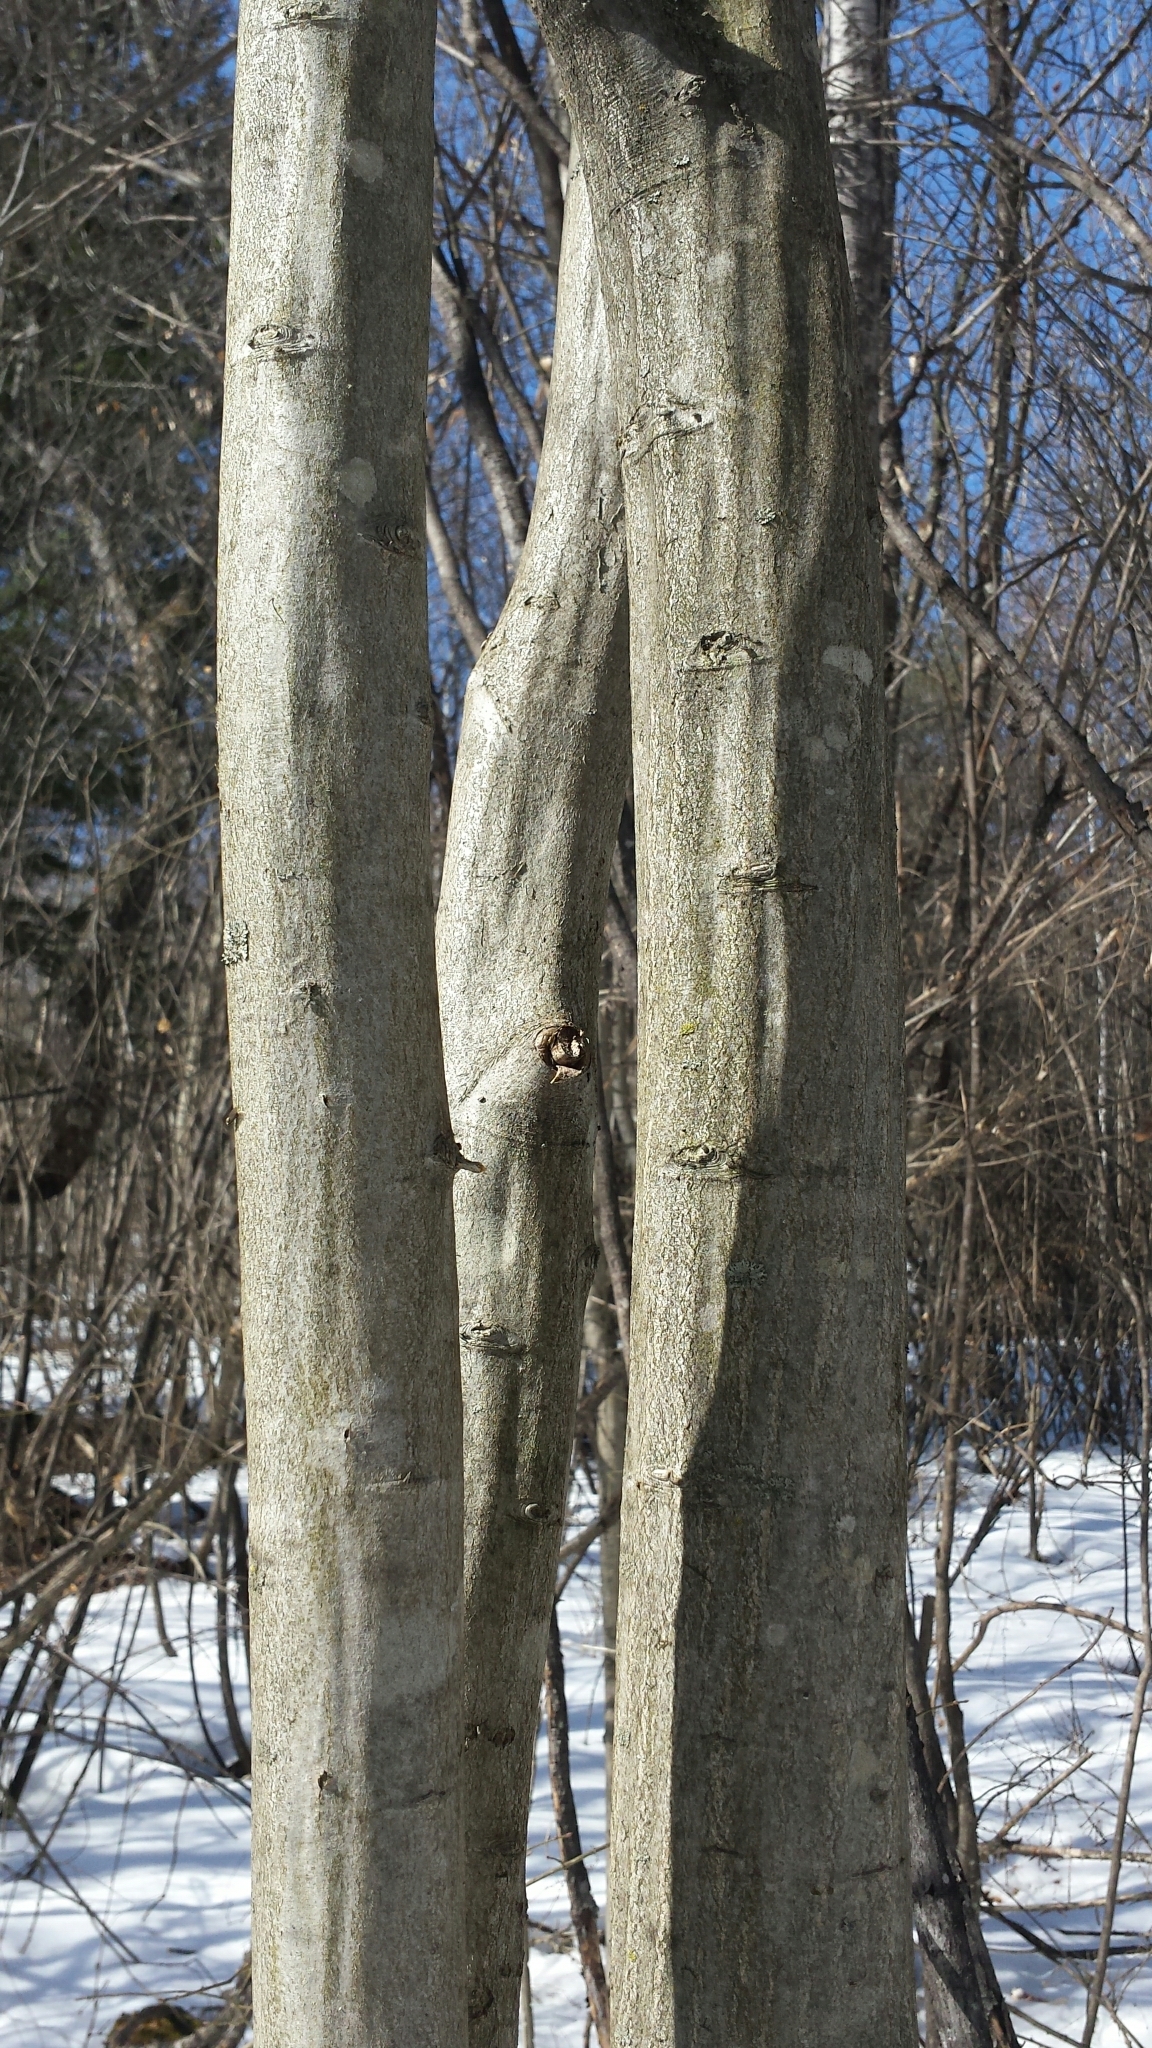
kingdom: Plantae
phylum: Tracheophyta
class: Magnoliopsida
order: Fagales
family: Betulaceae
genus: Carpinus
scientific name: Carpinus caroliniana
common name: American hornbeam
